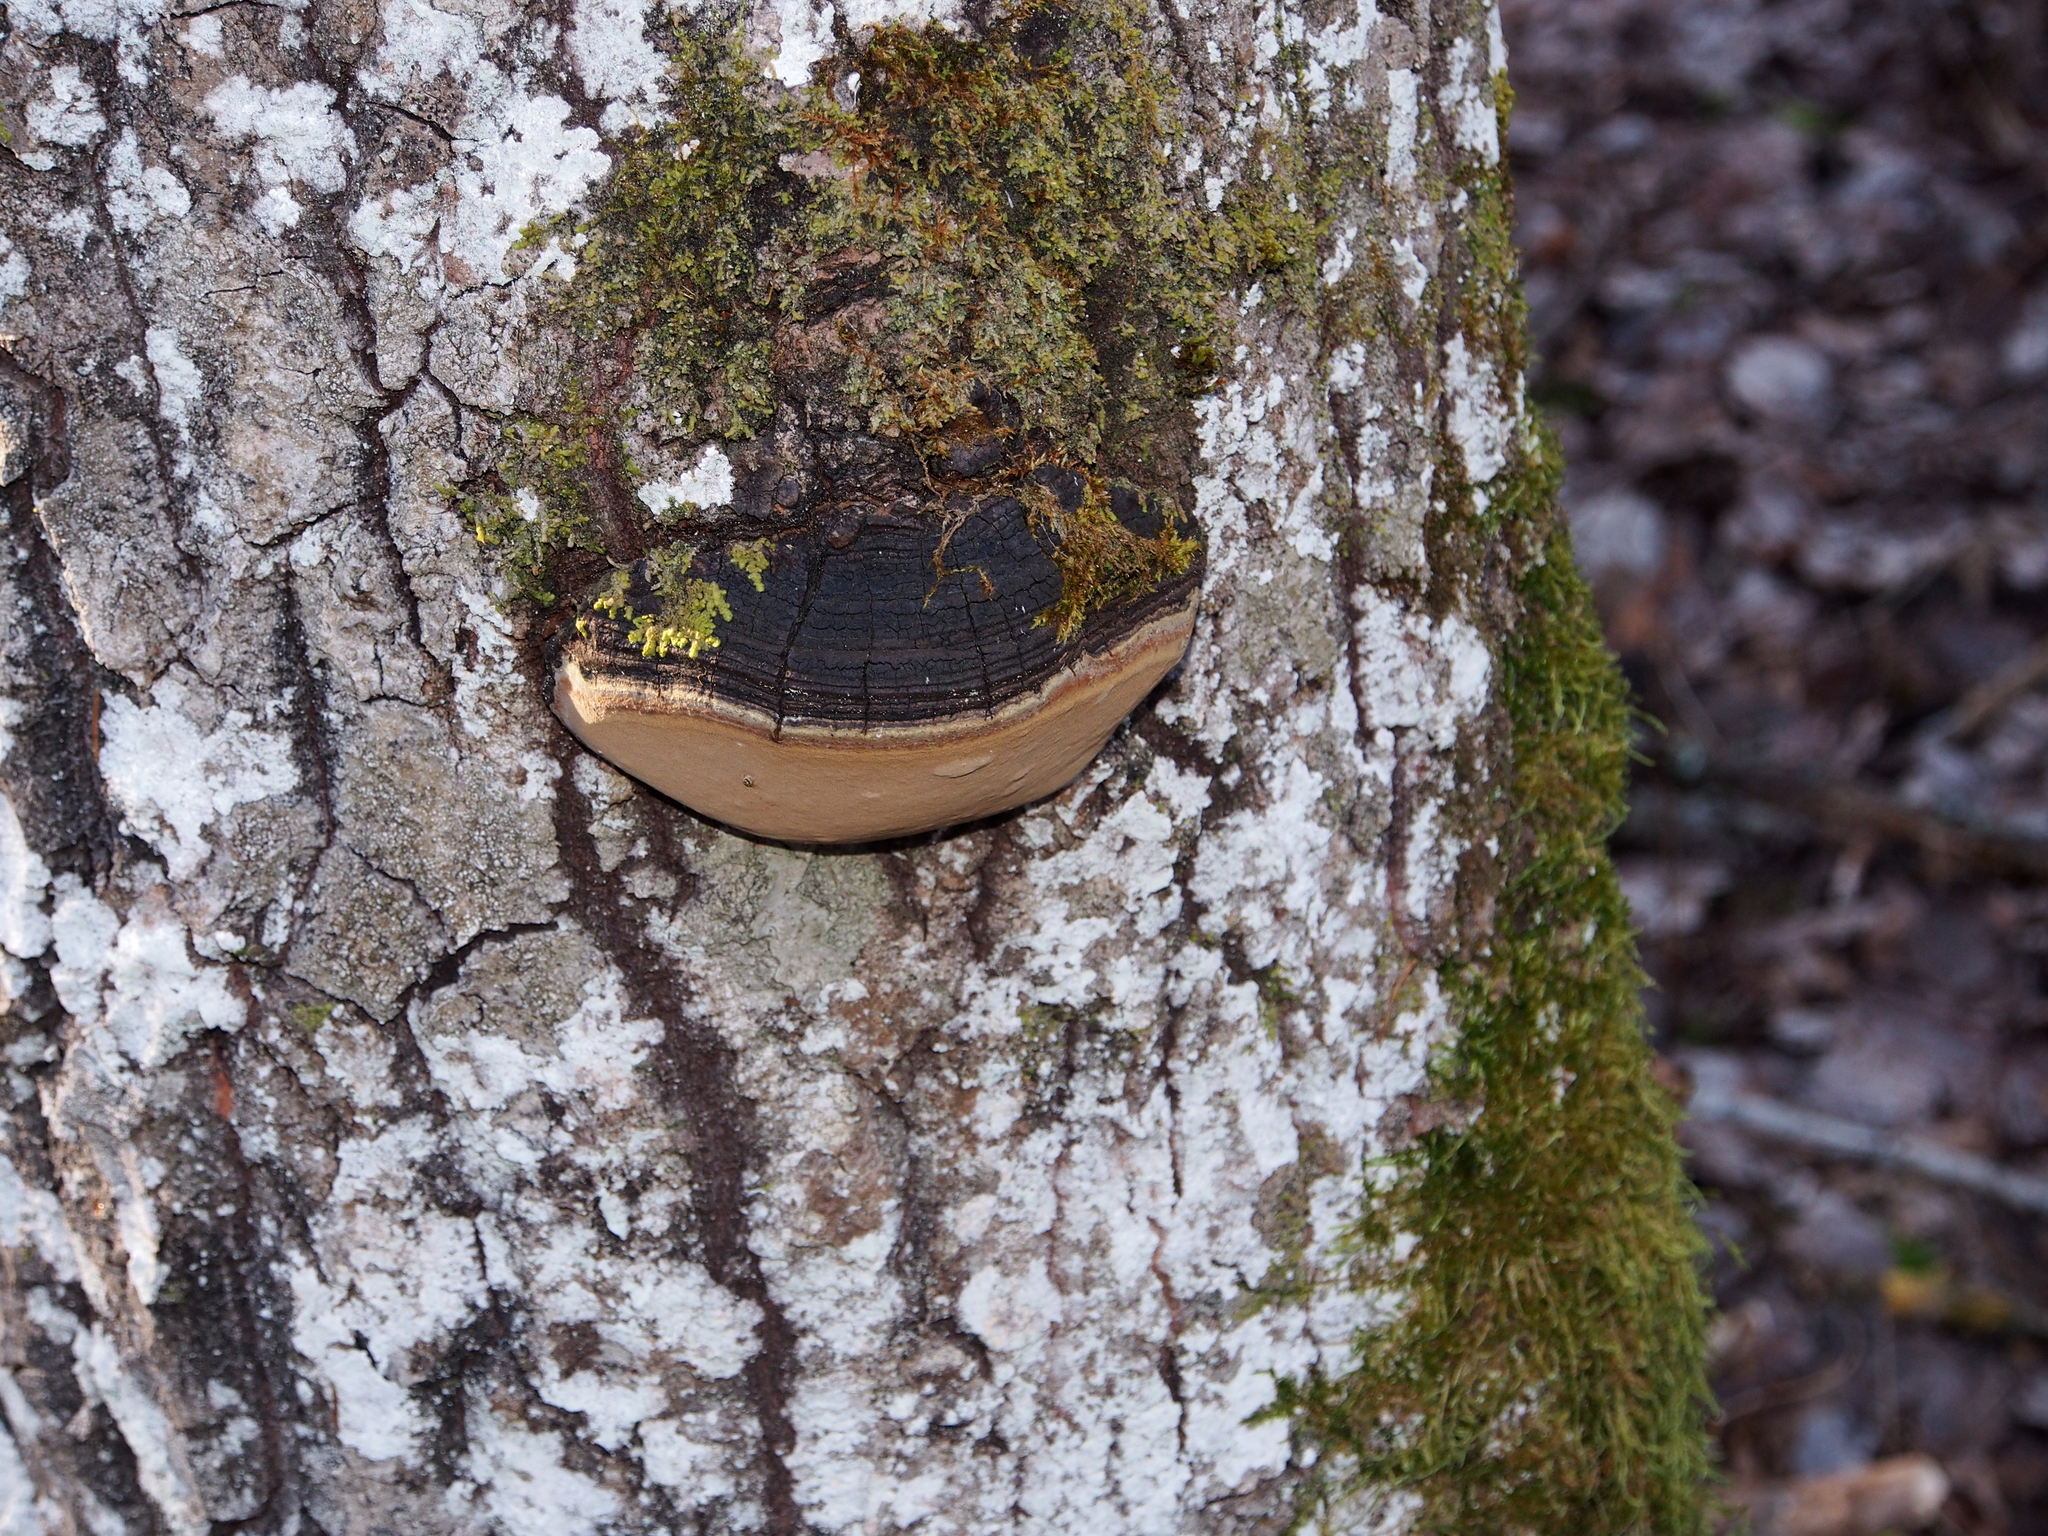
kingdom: Fungi
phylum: Basidiomycota
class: Agaricomycetes
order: Hymenochaetales
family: Hymenochaetaceae
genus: Phellinus
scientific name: Phellinus tremulae
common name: Aspen bracket
